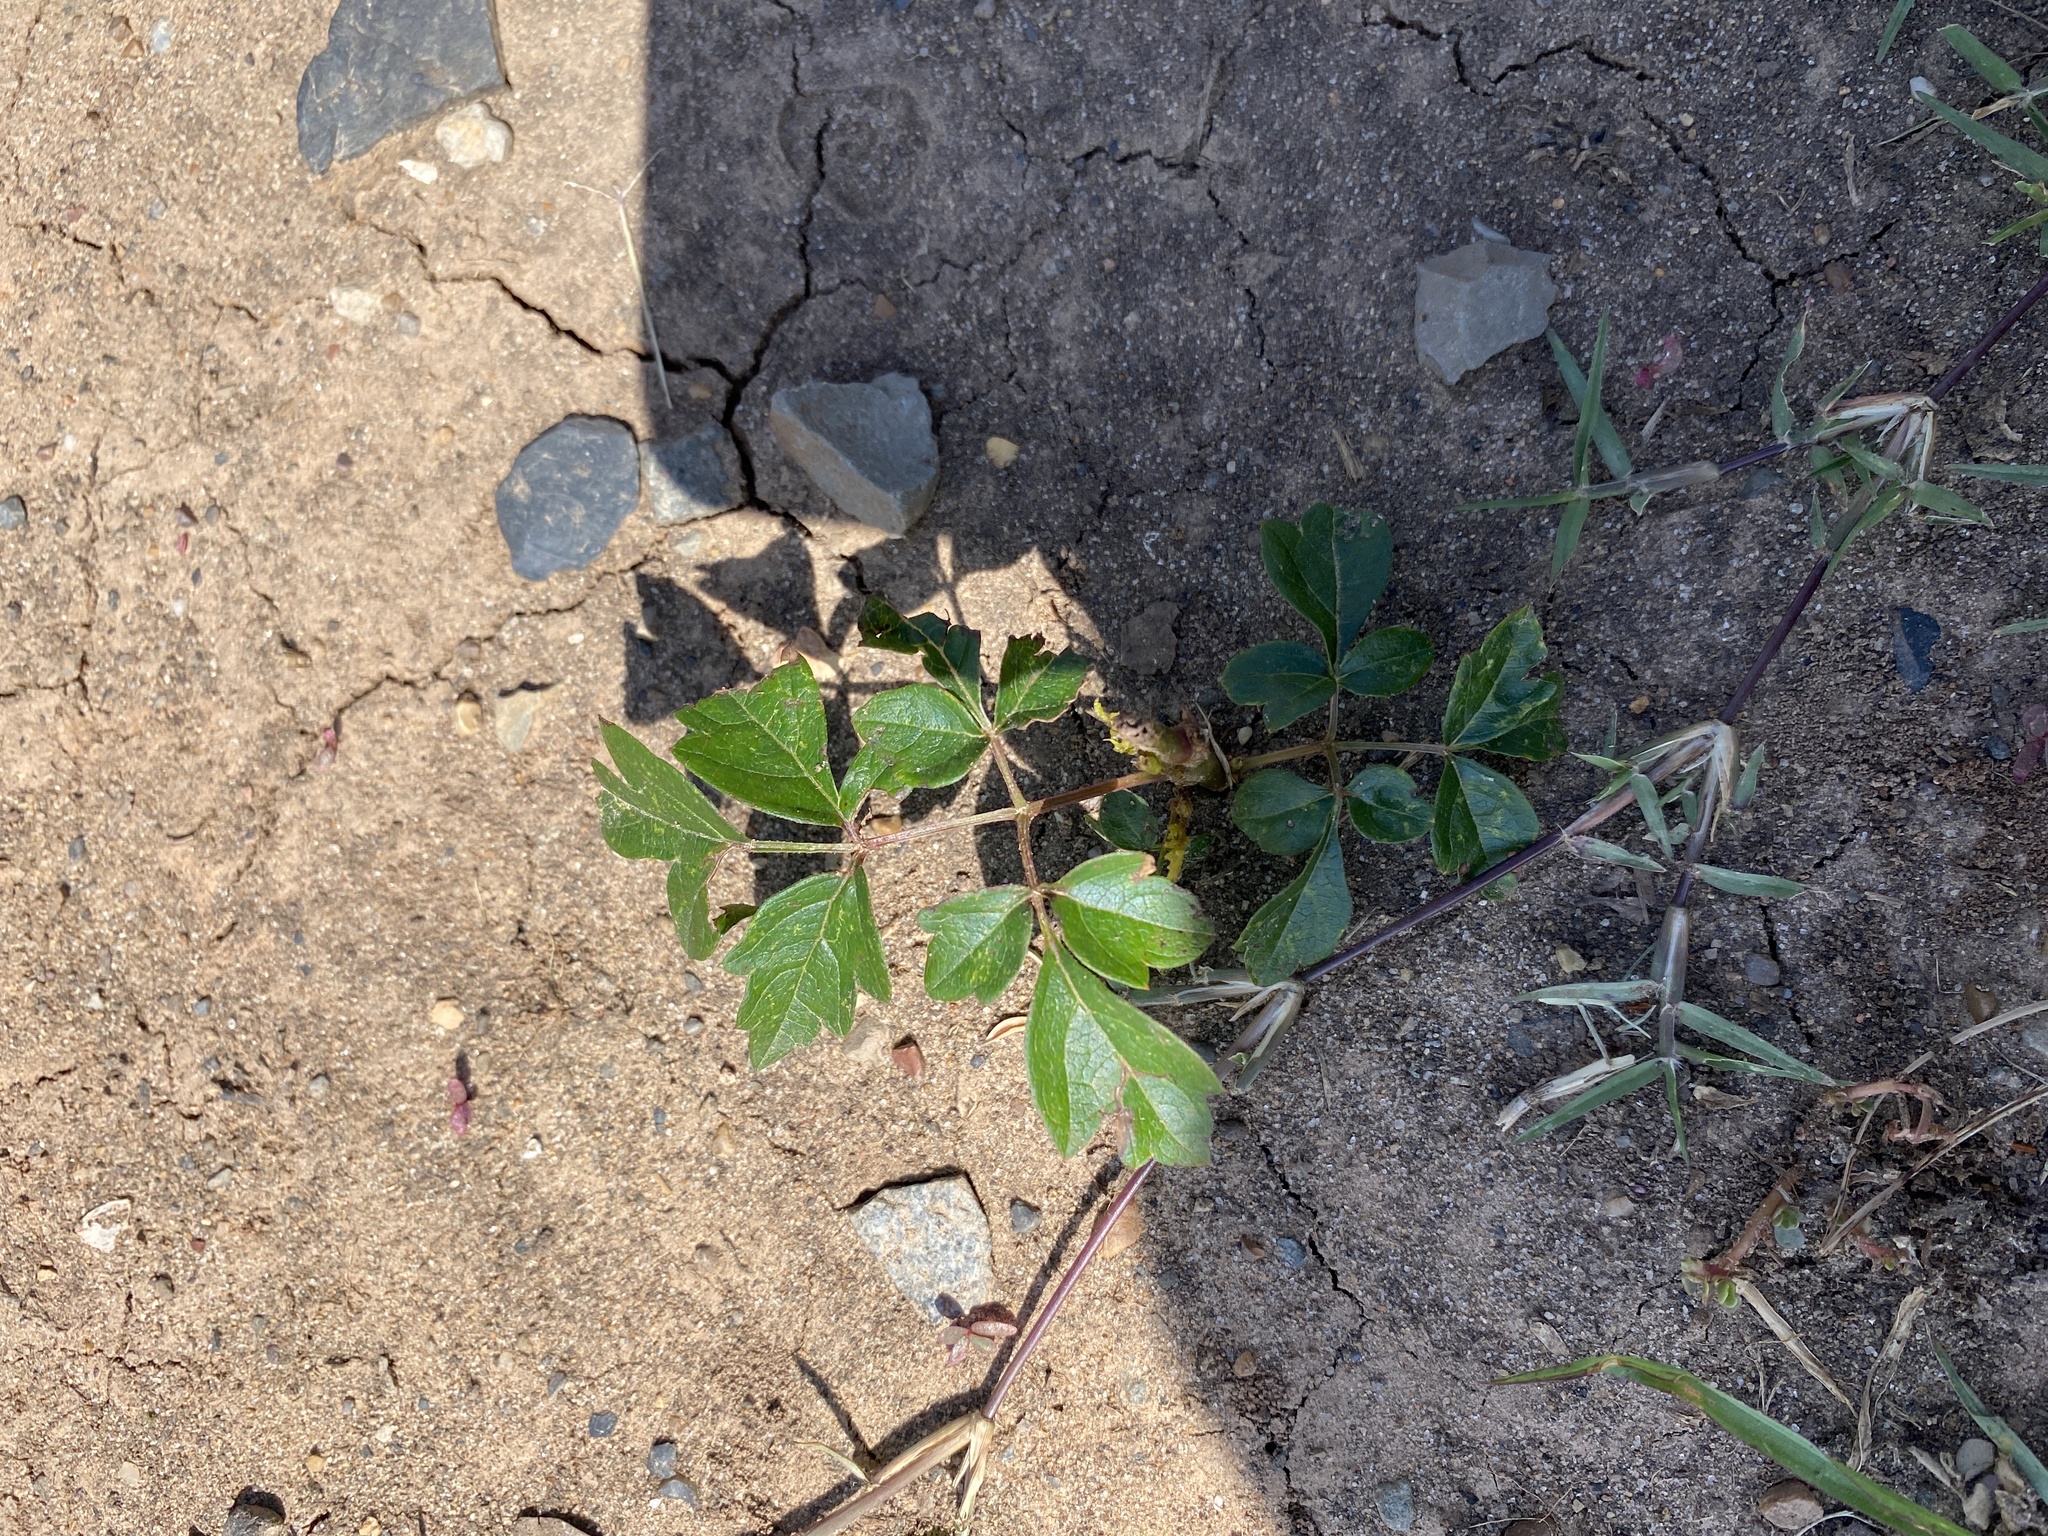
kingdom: Plantae
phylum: Tracheophyta
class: Magnoliopsida
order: Vitales
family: Vitaceae
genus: Nekemias
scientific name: Nekemias arborea
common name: Peppervine
